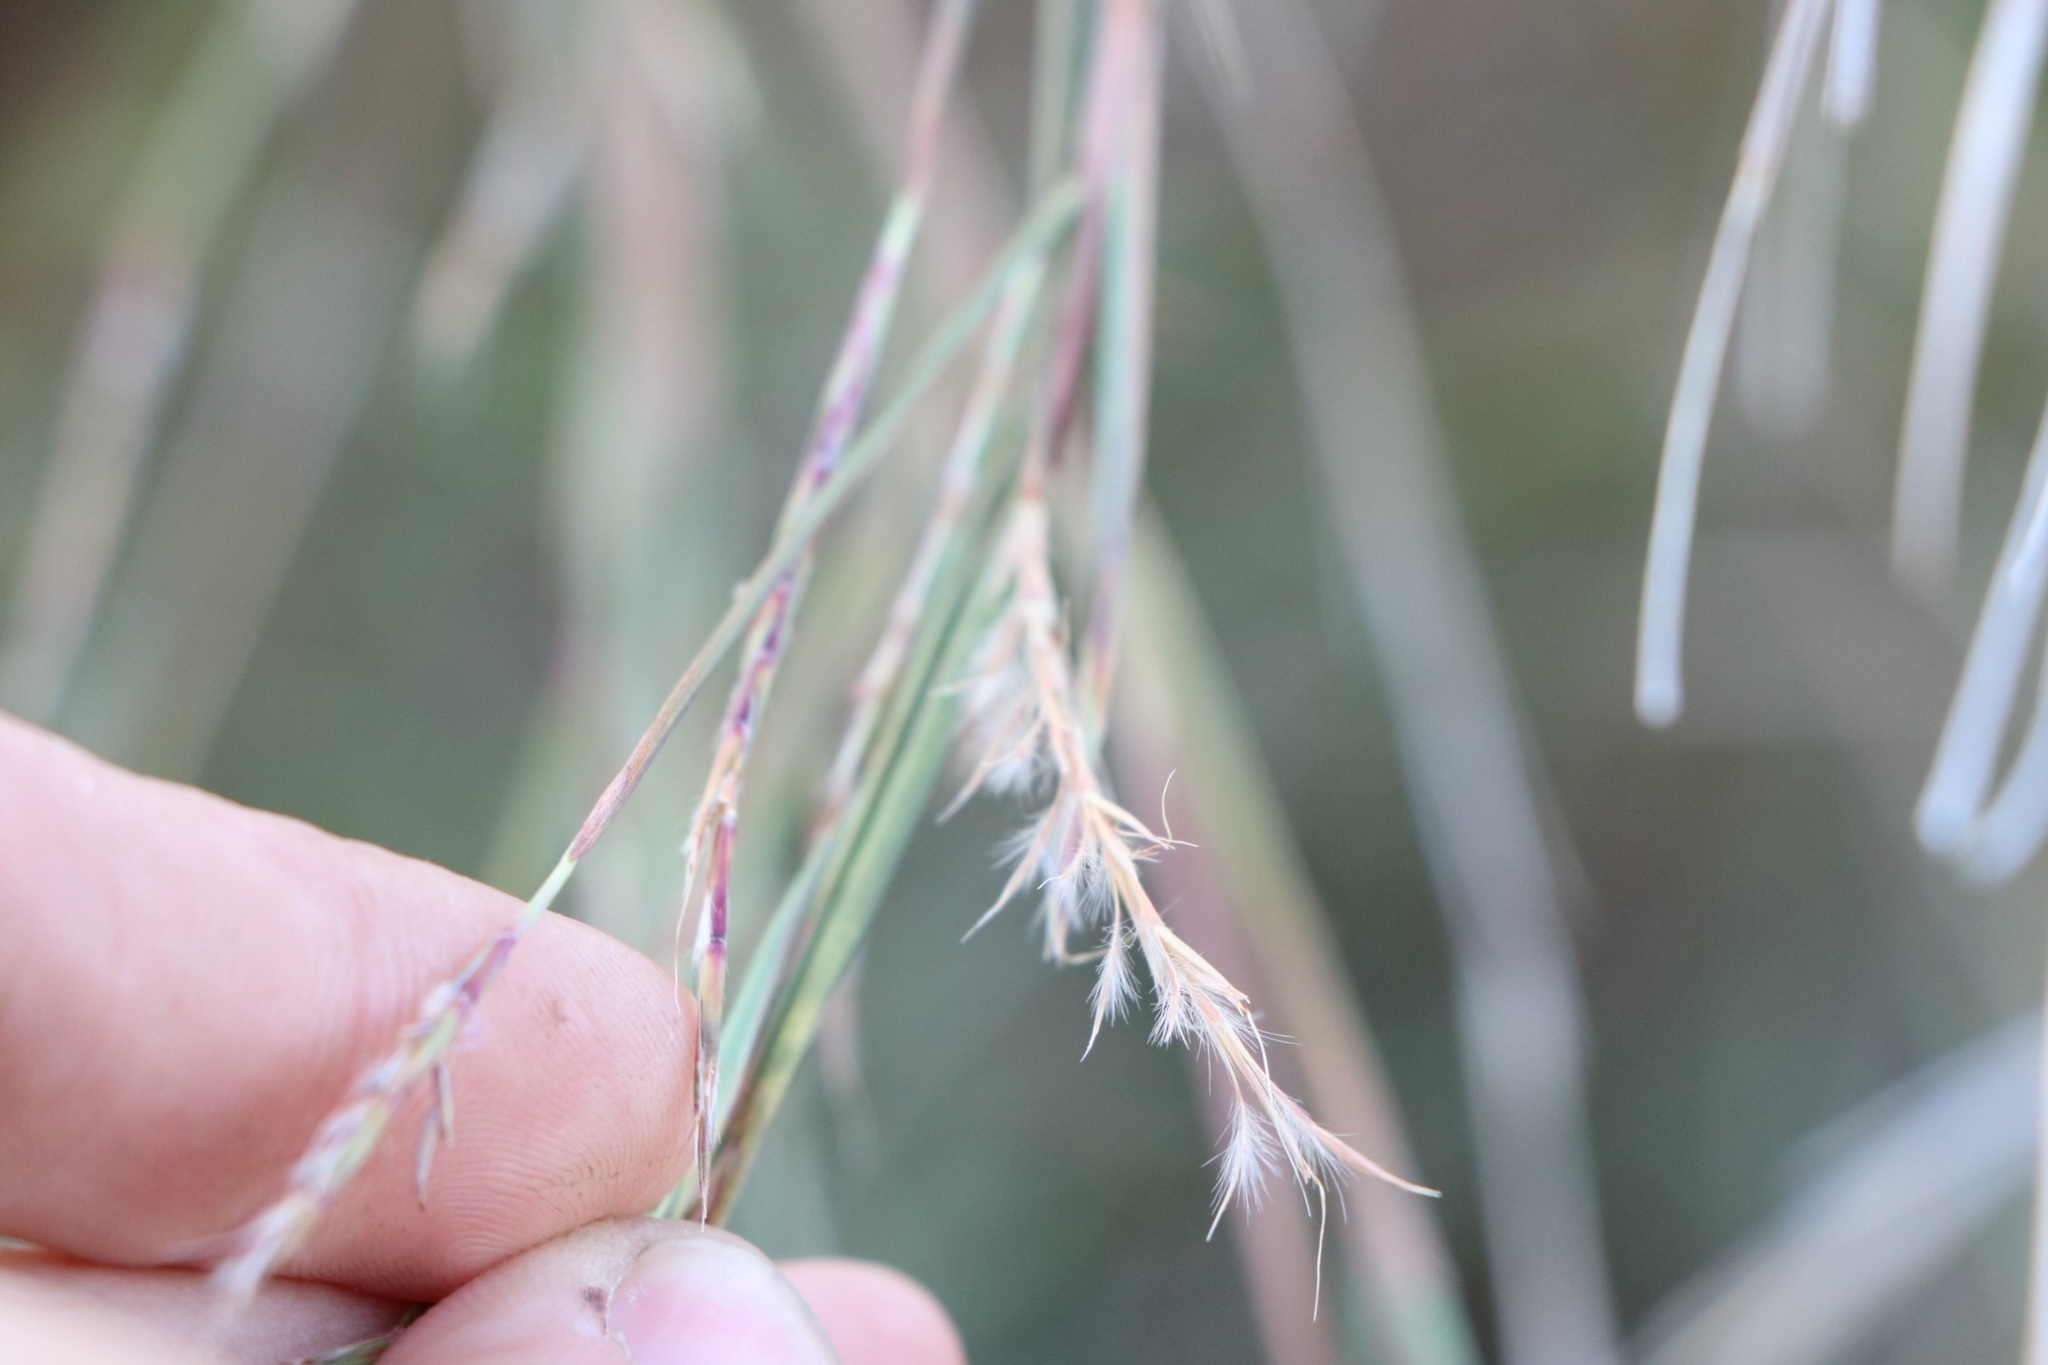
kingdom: Plantae
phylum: Tracheophyta
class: Liliopsida
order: Poales
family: Poaceae
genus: Schizachyrium
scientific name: Schizachyrium scoparium
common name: Little bluestem
